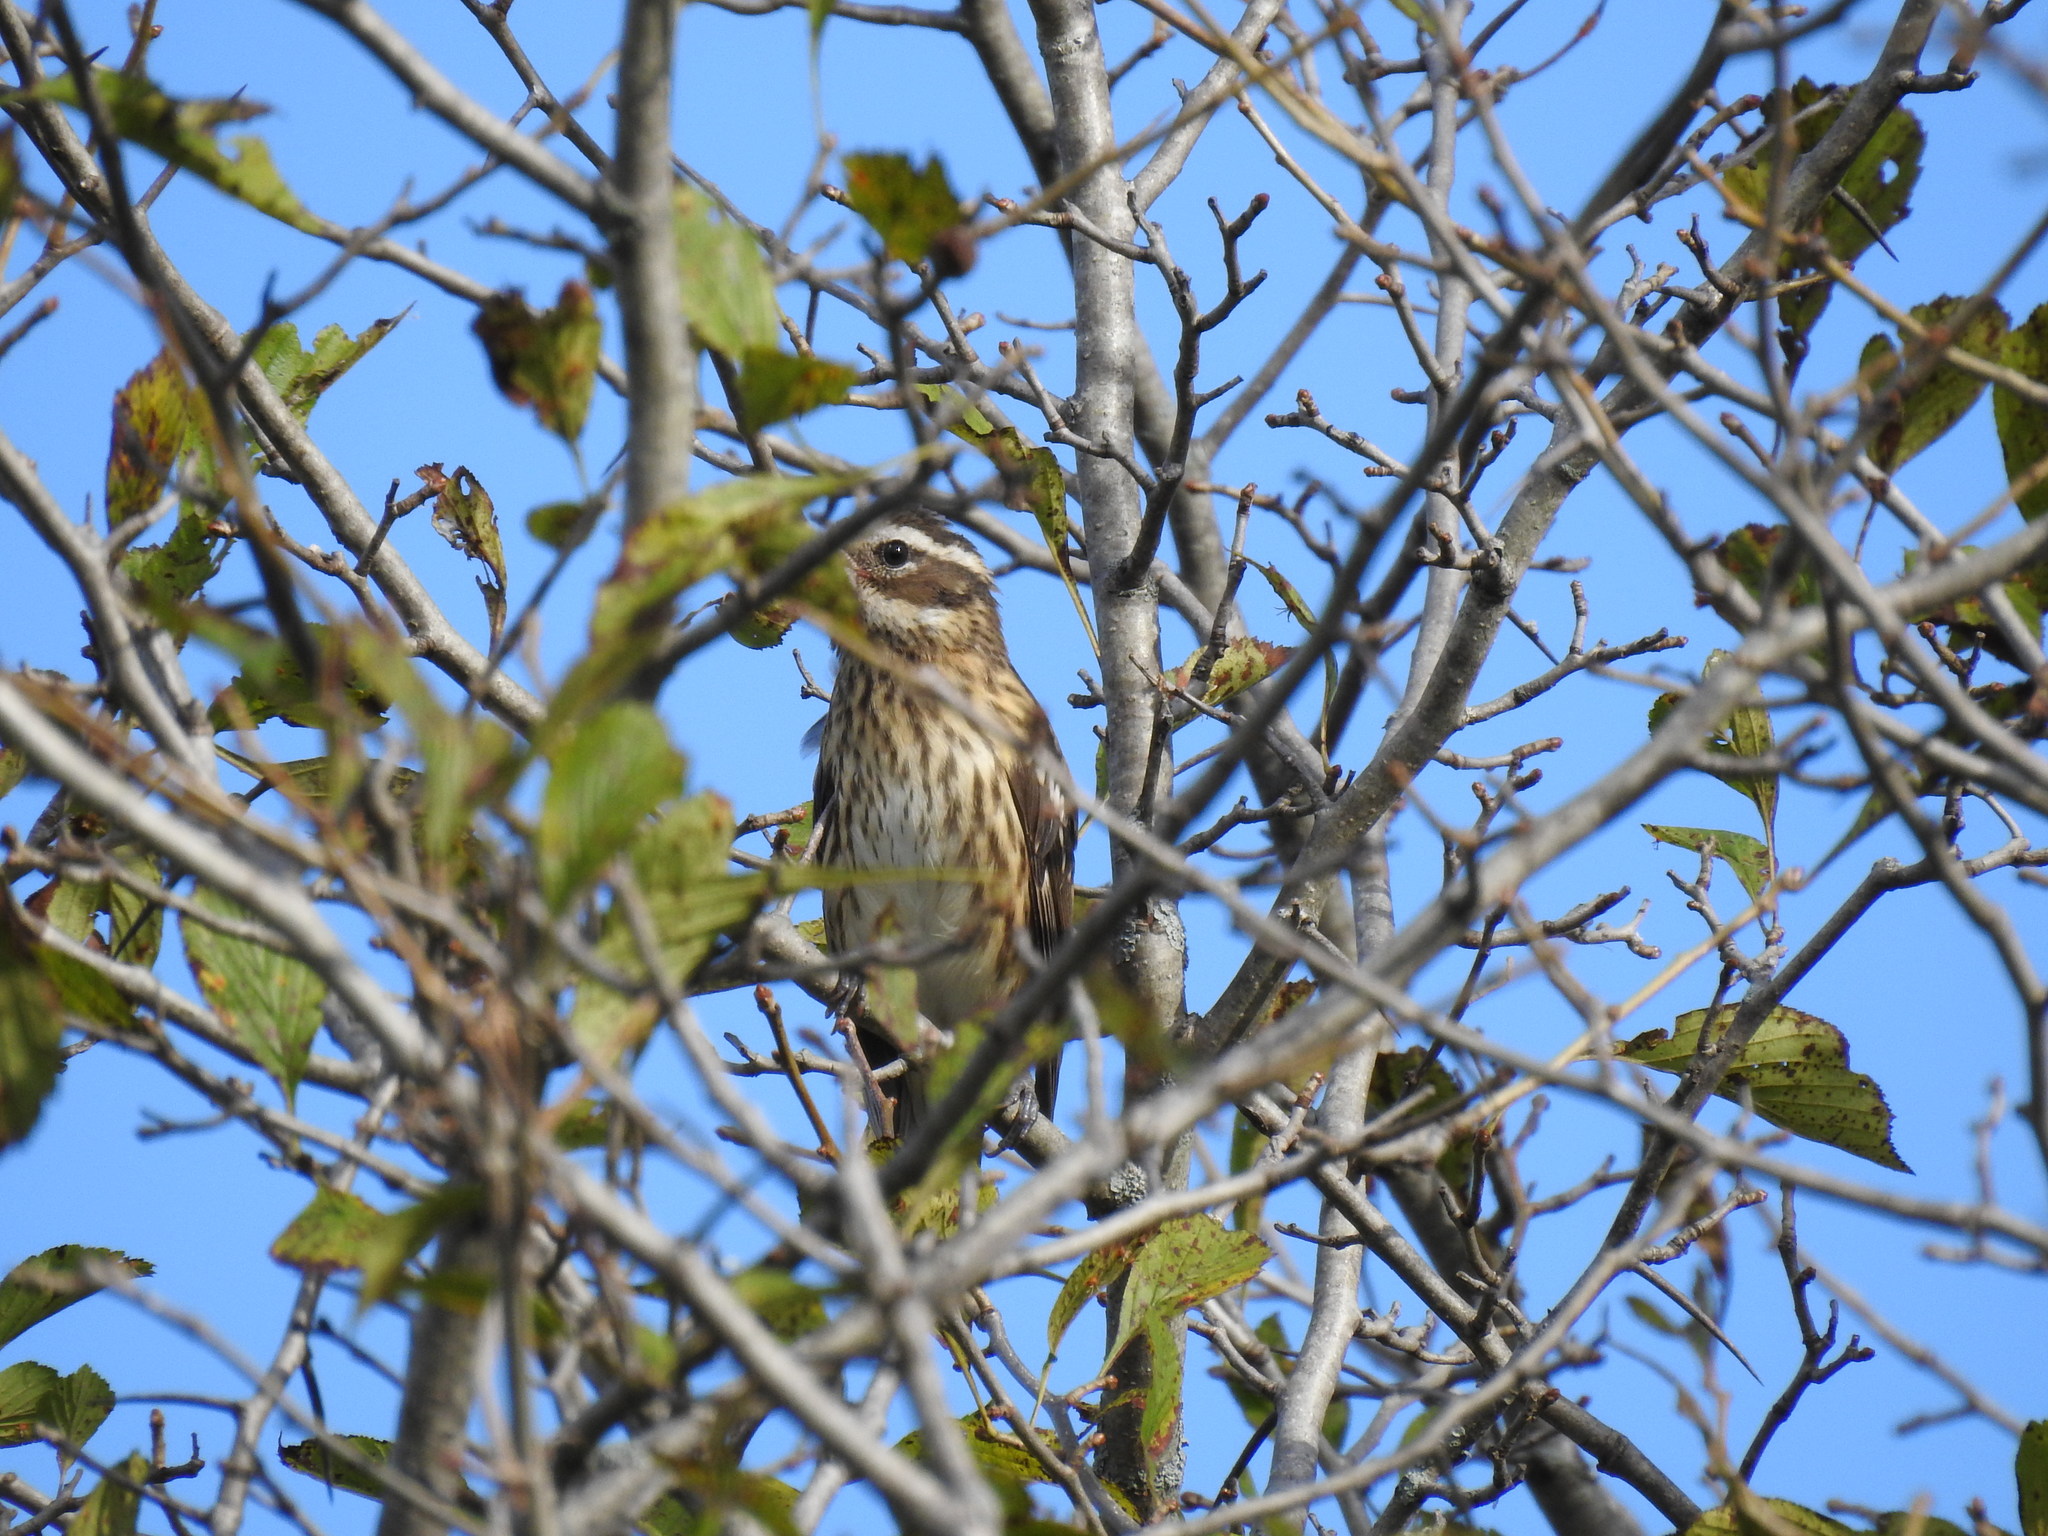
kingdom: Animalia
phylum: Chordata
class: Aves
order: Passeriformes
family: Cardinalidae
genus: Pheucticus
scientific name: Pheucticus ludovicianus
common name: Rose-breasted grosbeak
